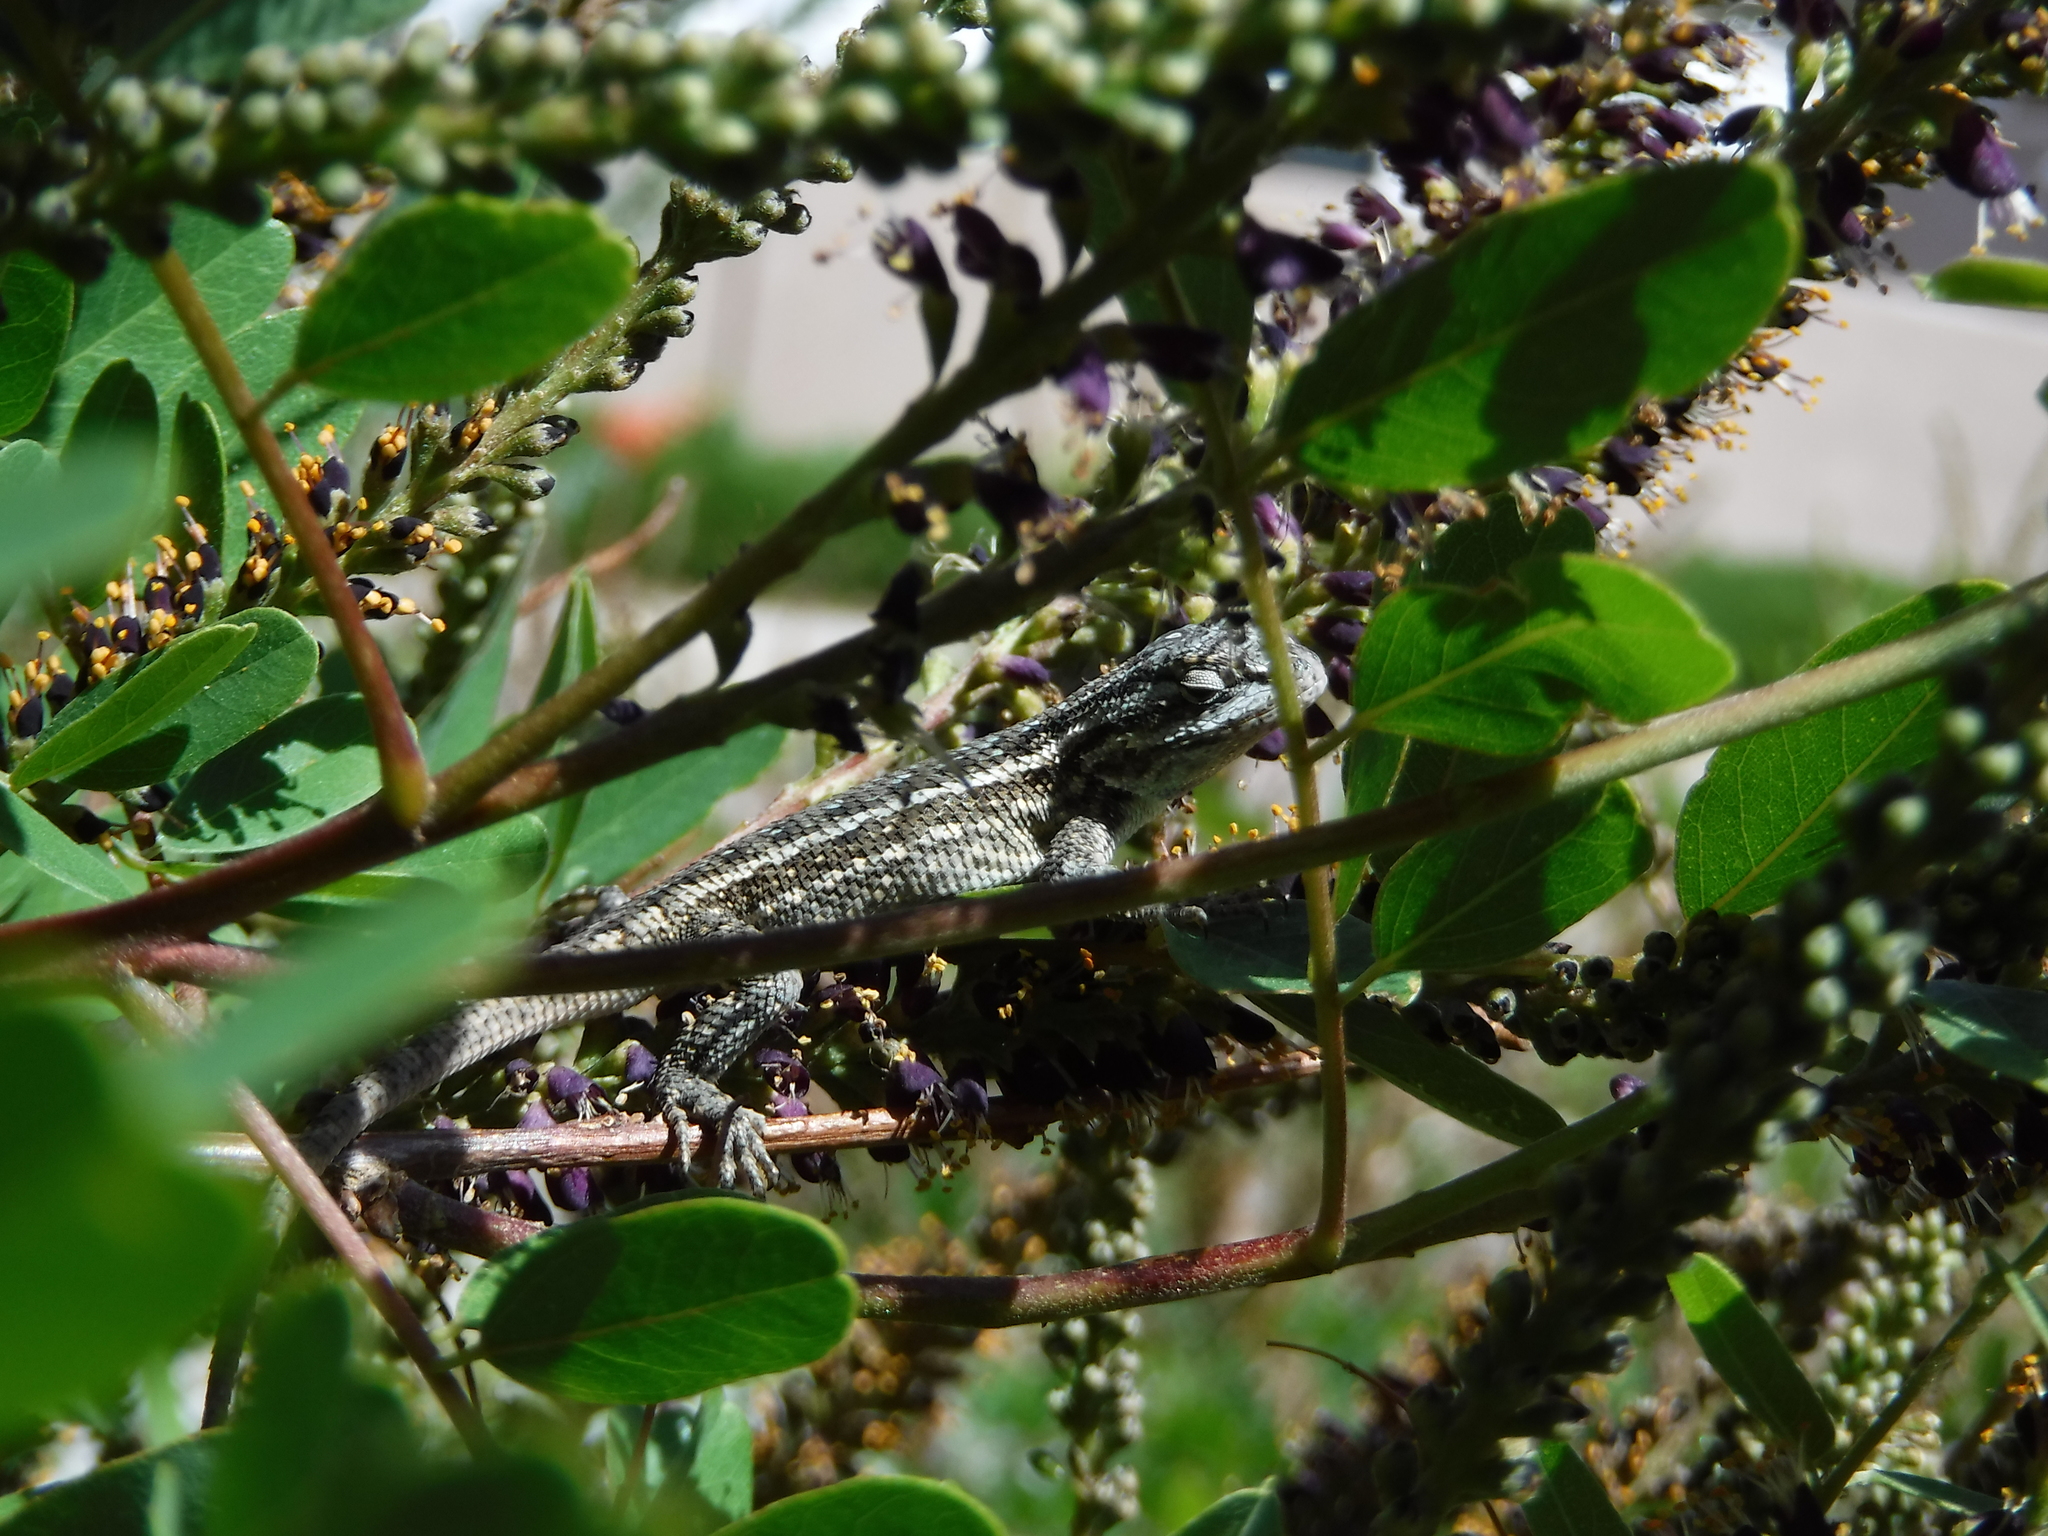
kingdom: Animalia
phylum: Chordata
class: Squamata
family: Phrynosomatidae
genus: Sceloporus
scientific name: Sceloporus cowlesi
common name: White sands prairie lizard
